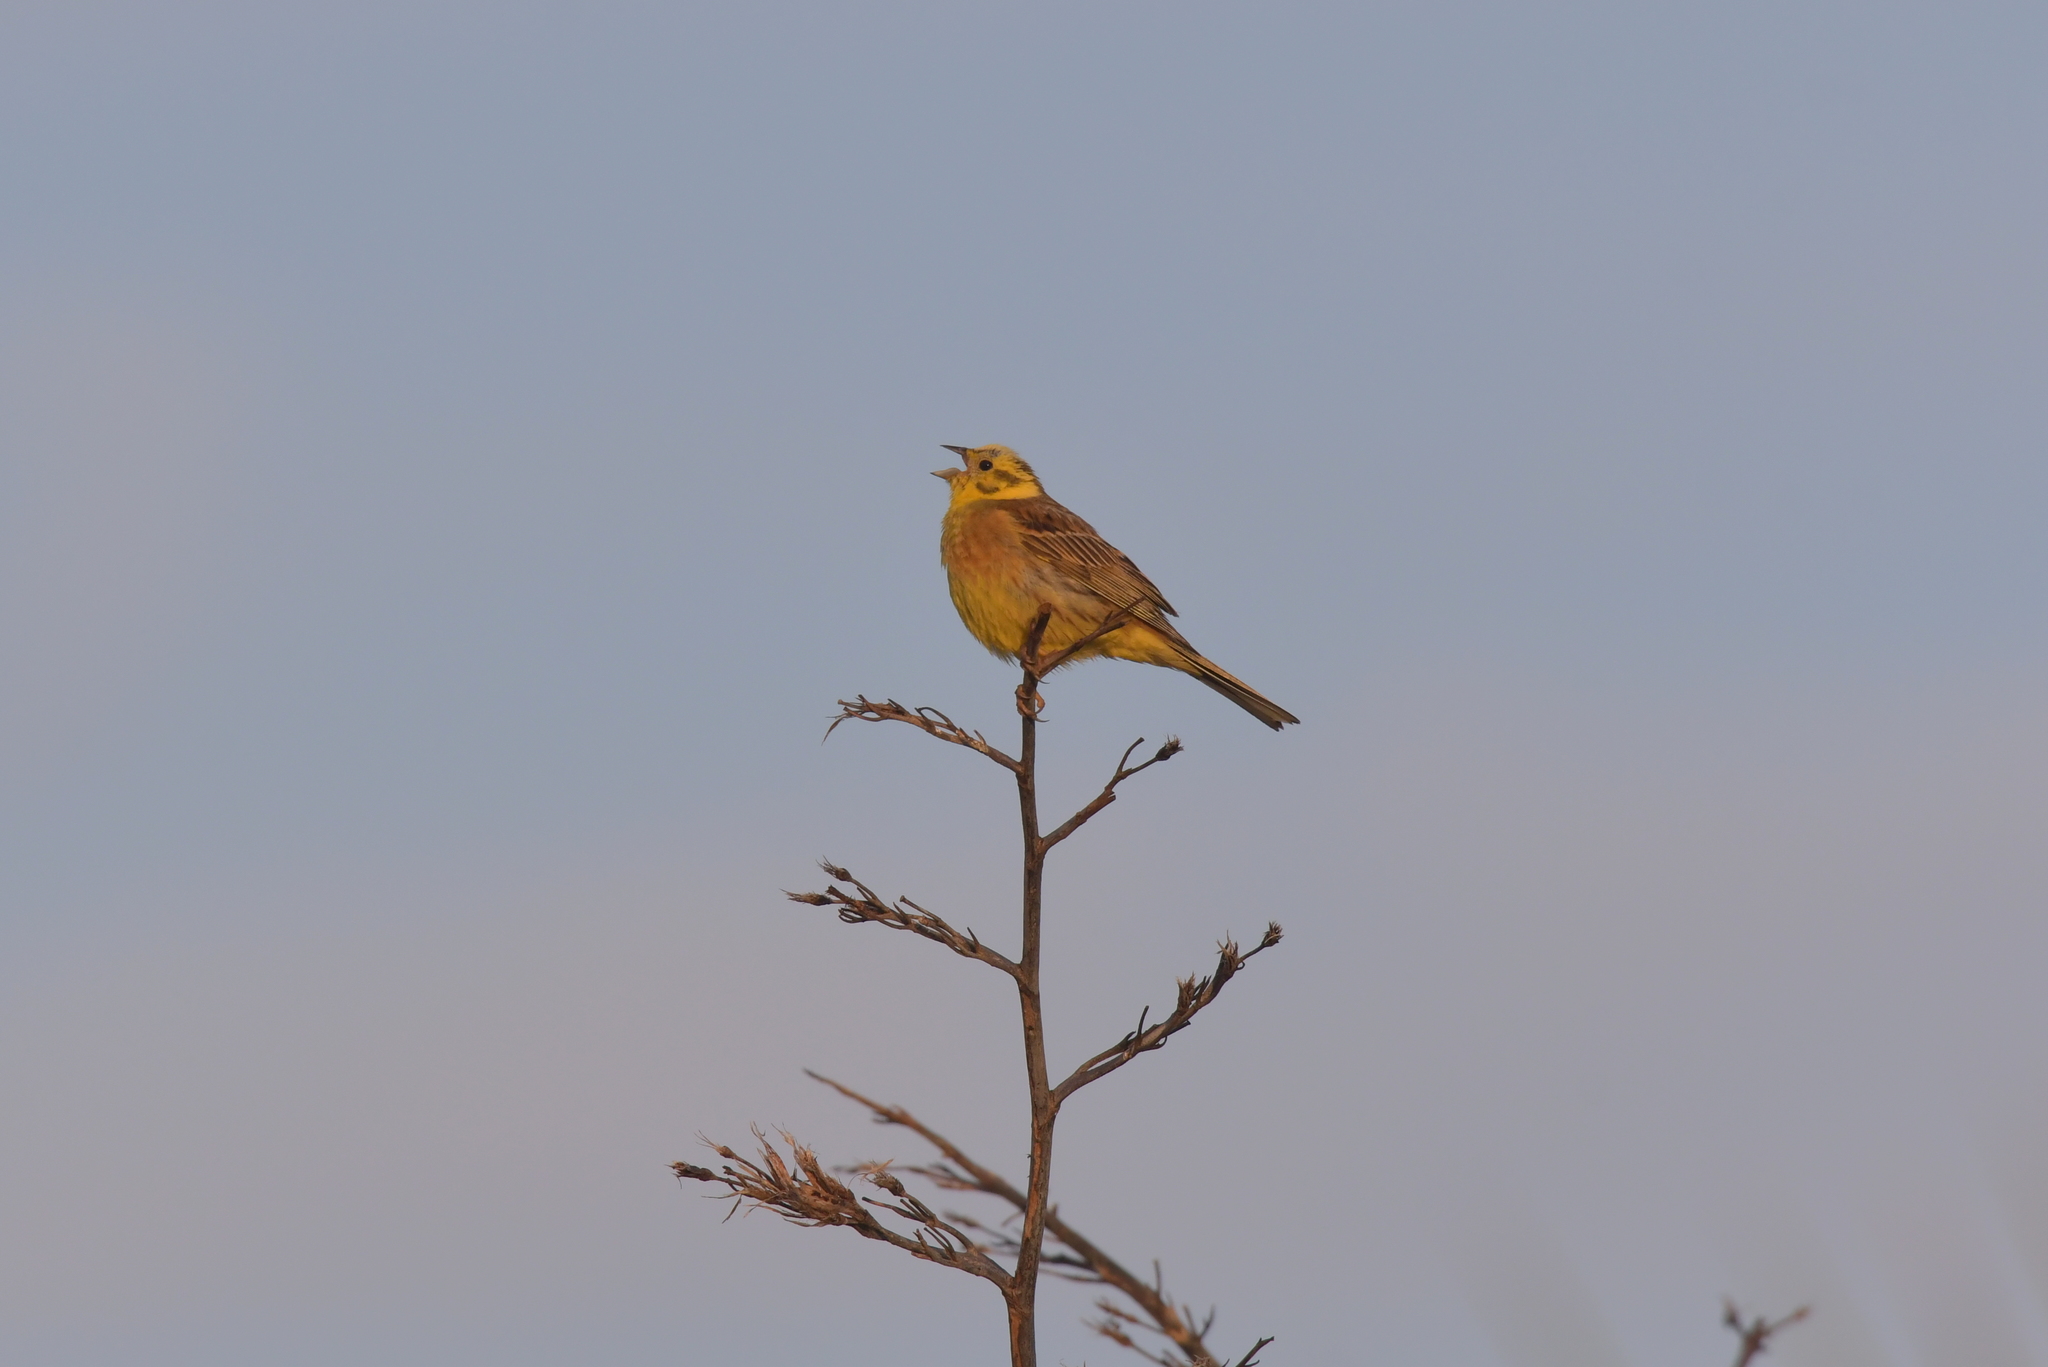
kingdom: Animalia
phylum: Chordata
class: Aves
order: Passeriformes
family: Emberizidae
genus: Emberiza
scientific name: Emberiza citrinella
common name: Yellowhammer
